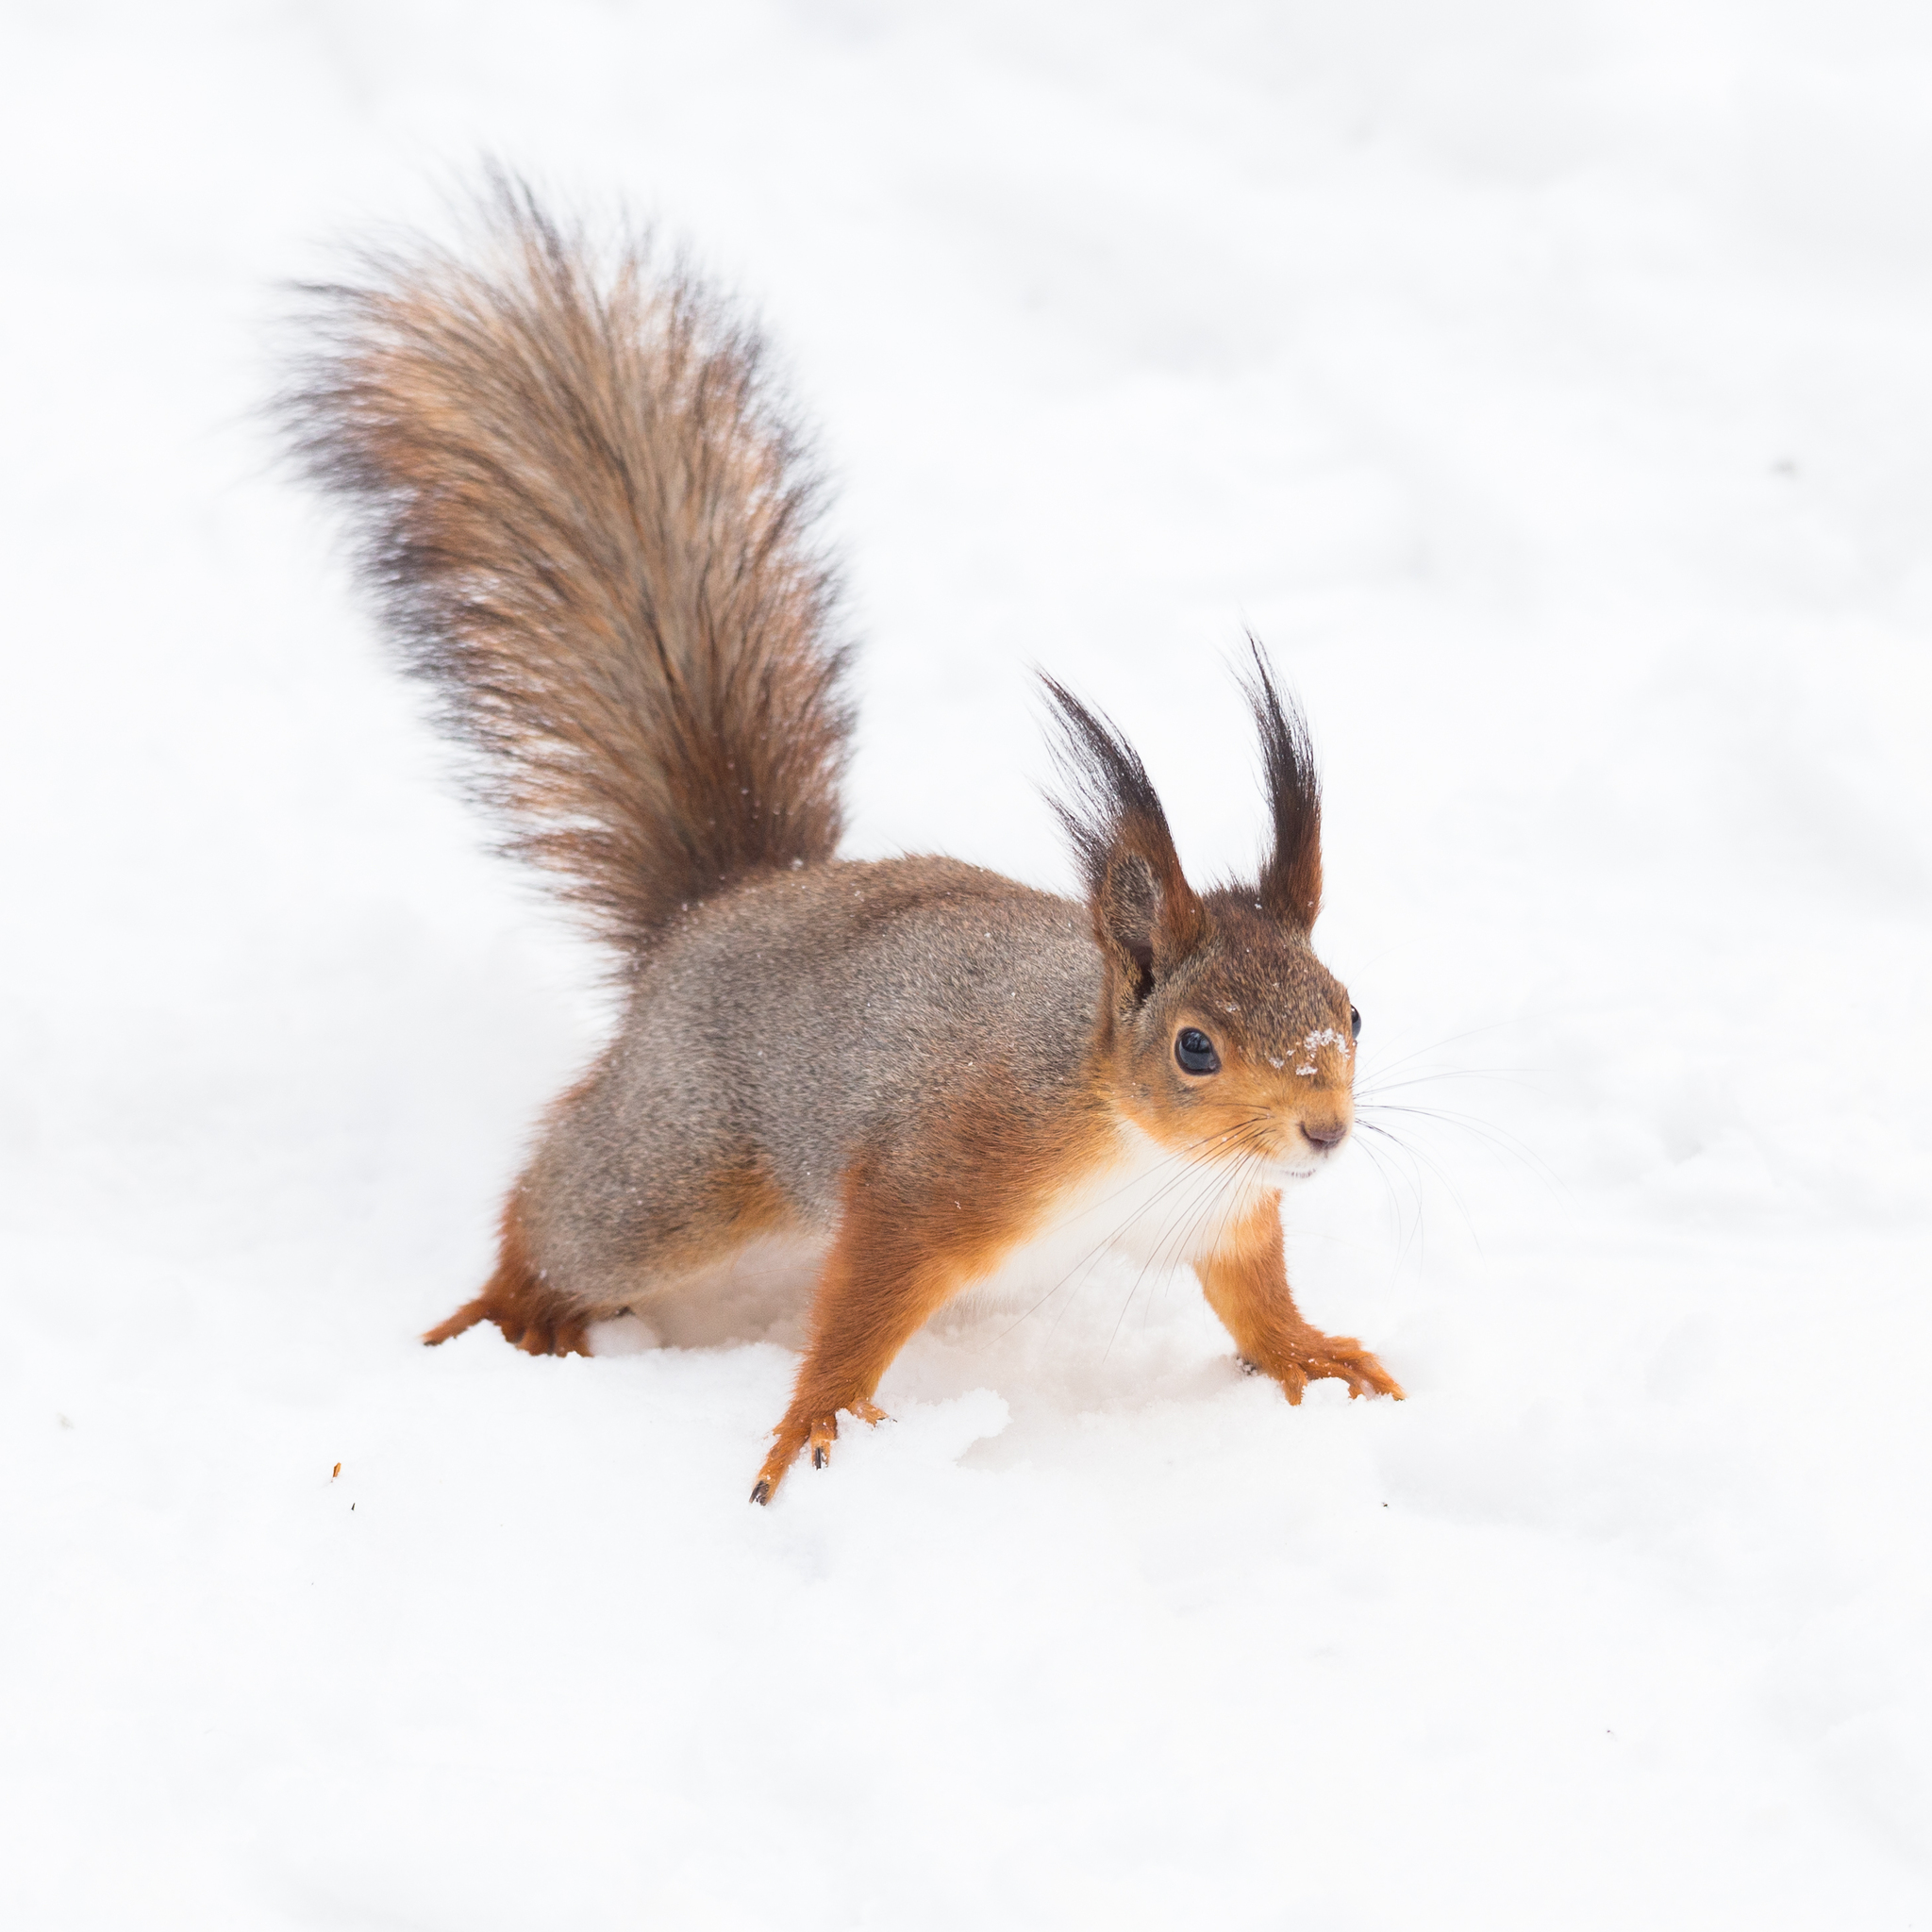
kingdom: Animalia
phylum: Chordata
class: Mammalia
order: Rodentia
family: Sciuridae
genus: Sciurus
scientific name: Sciurus vulgaris
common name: Eurasian red squirrel
